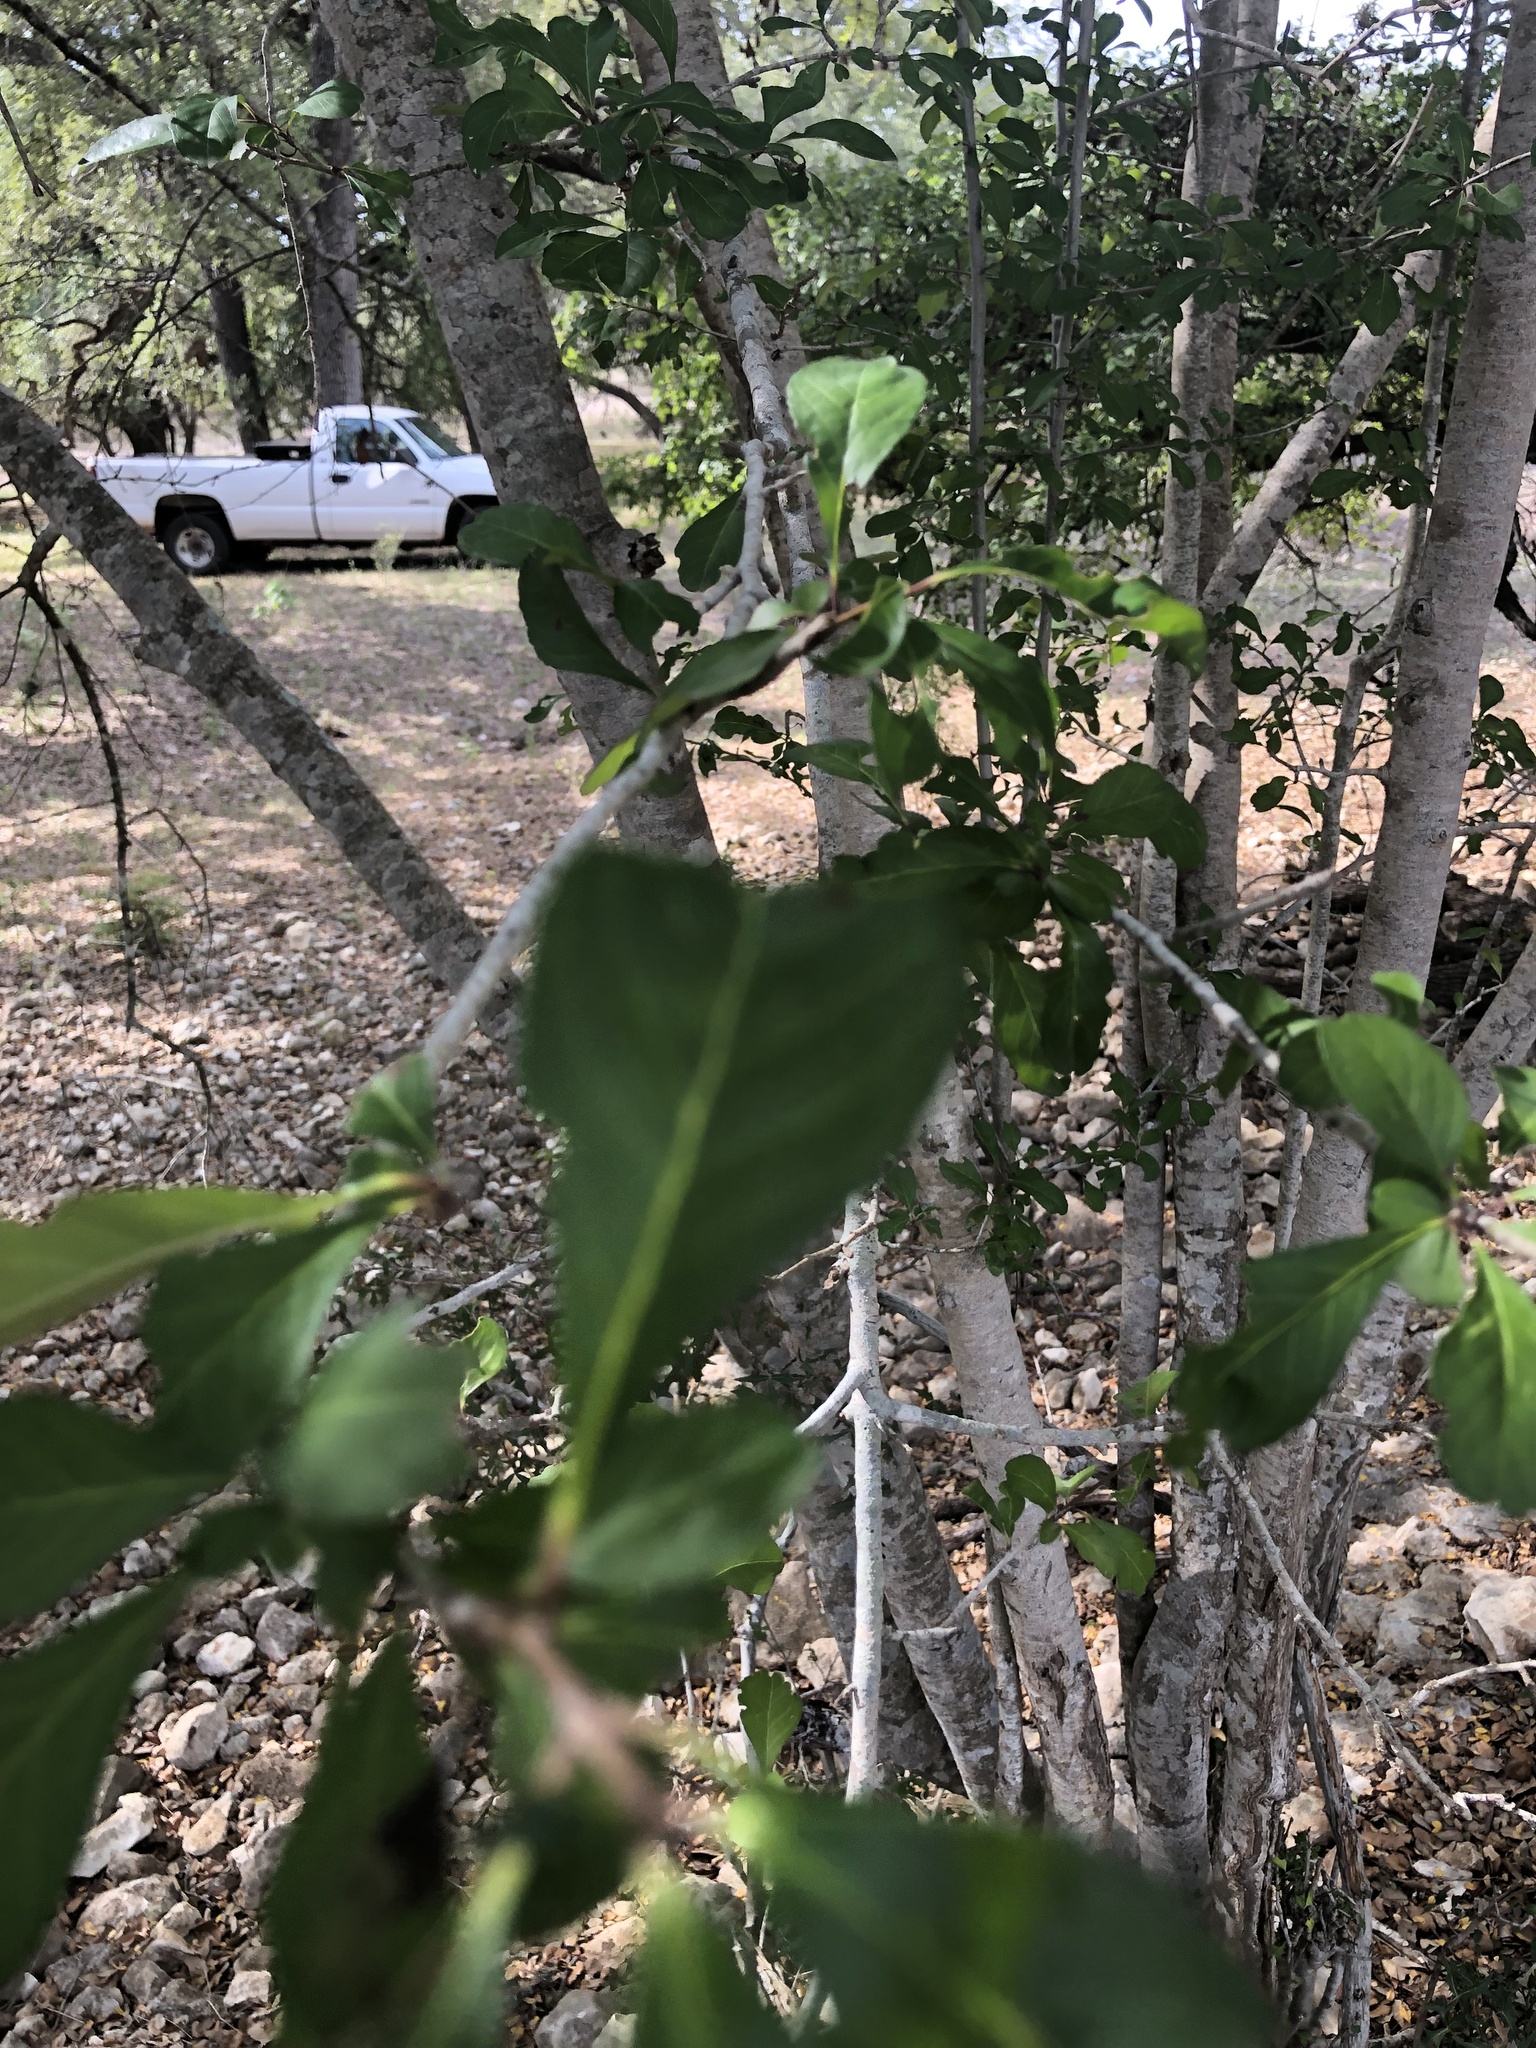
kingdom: Plantae
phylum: Tracheophyta
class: Magnoliopsida
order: Aquifoliales
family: Aquifoliaceae
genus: Ilex
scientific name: Ilex decidua
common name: Possum-haw
